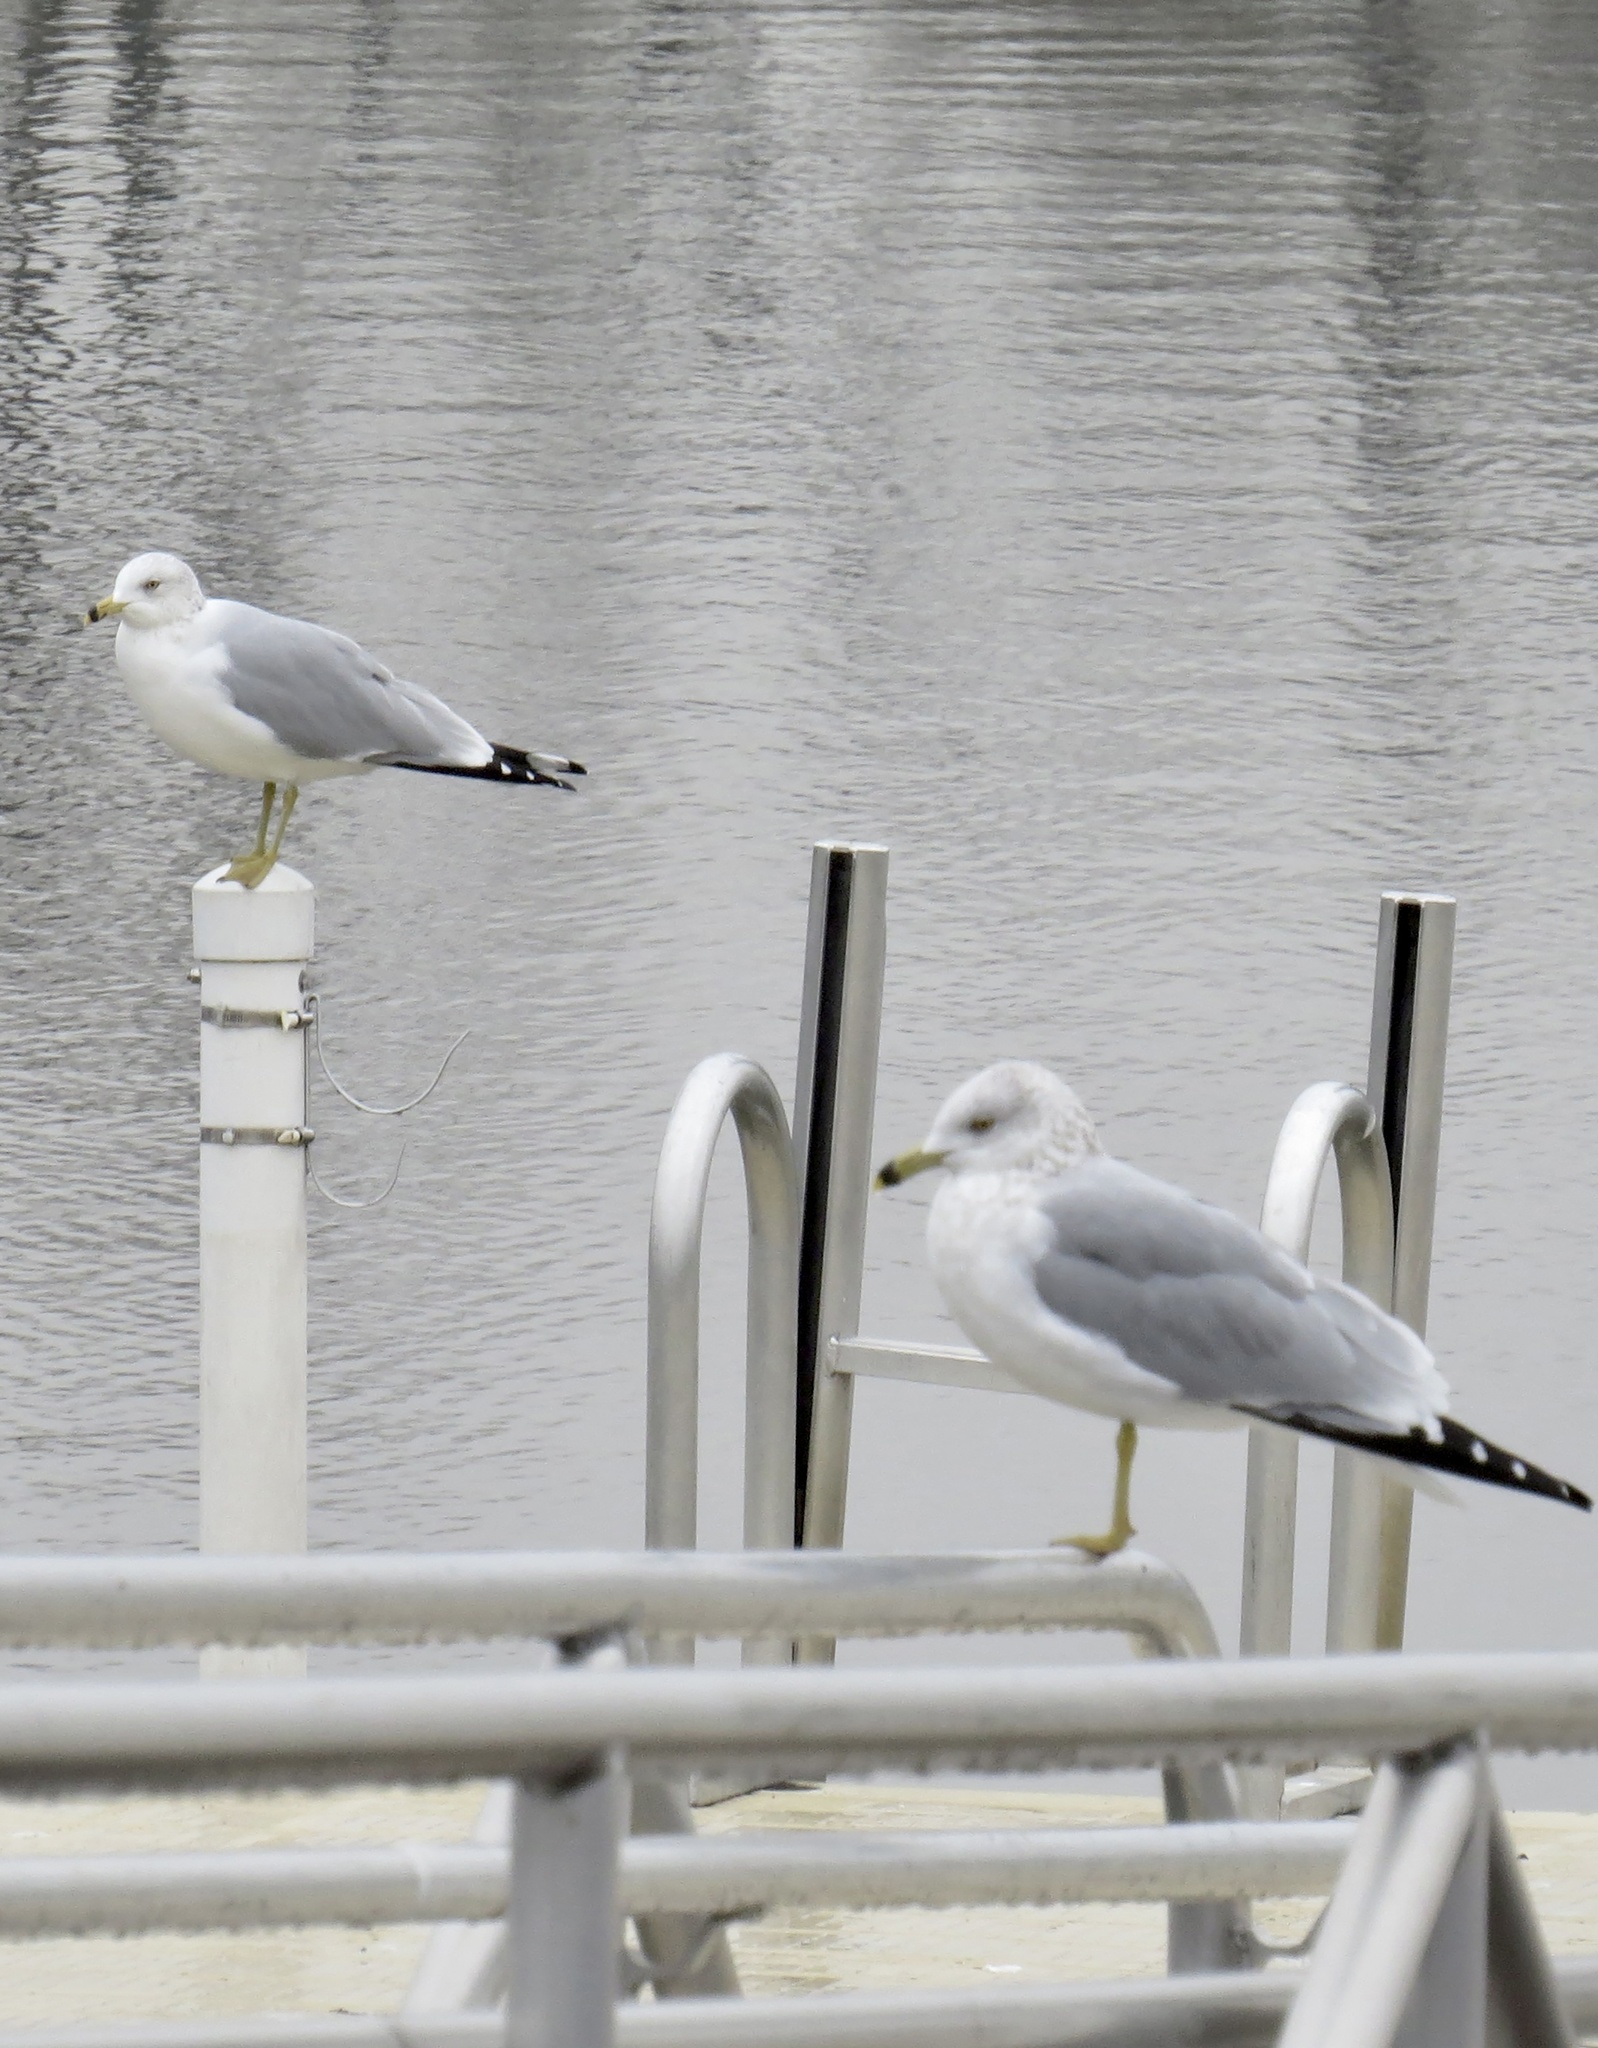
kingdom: Animalia
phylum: Chordata
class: Aves
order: Charadriiformes
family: Laridae
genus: Larus
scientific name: Larus delawarensis
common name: Ring-billed gull
